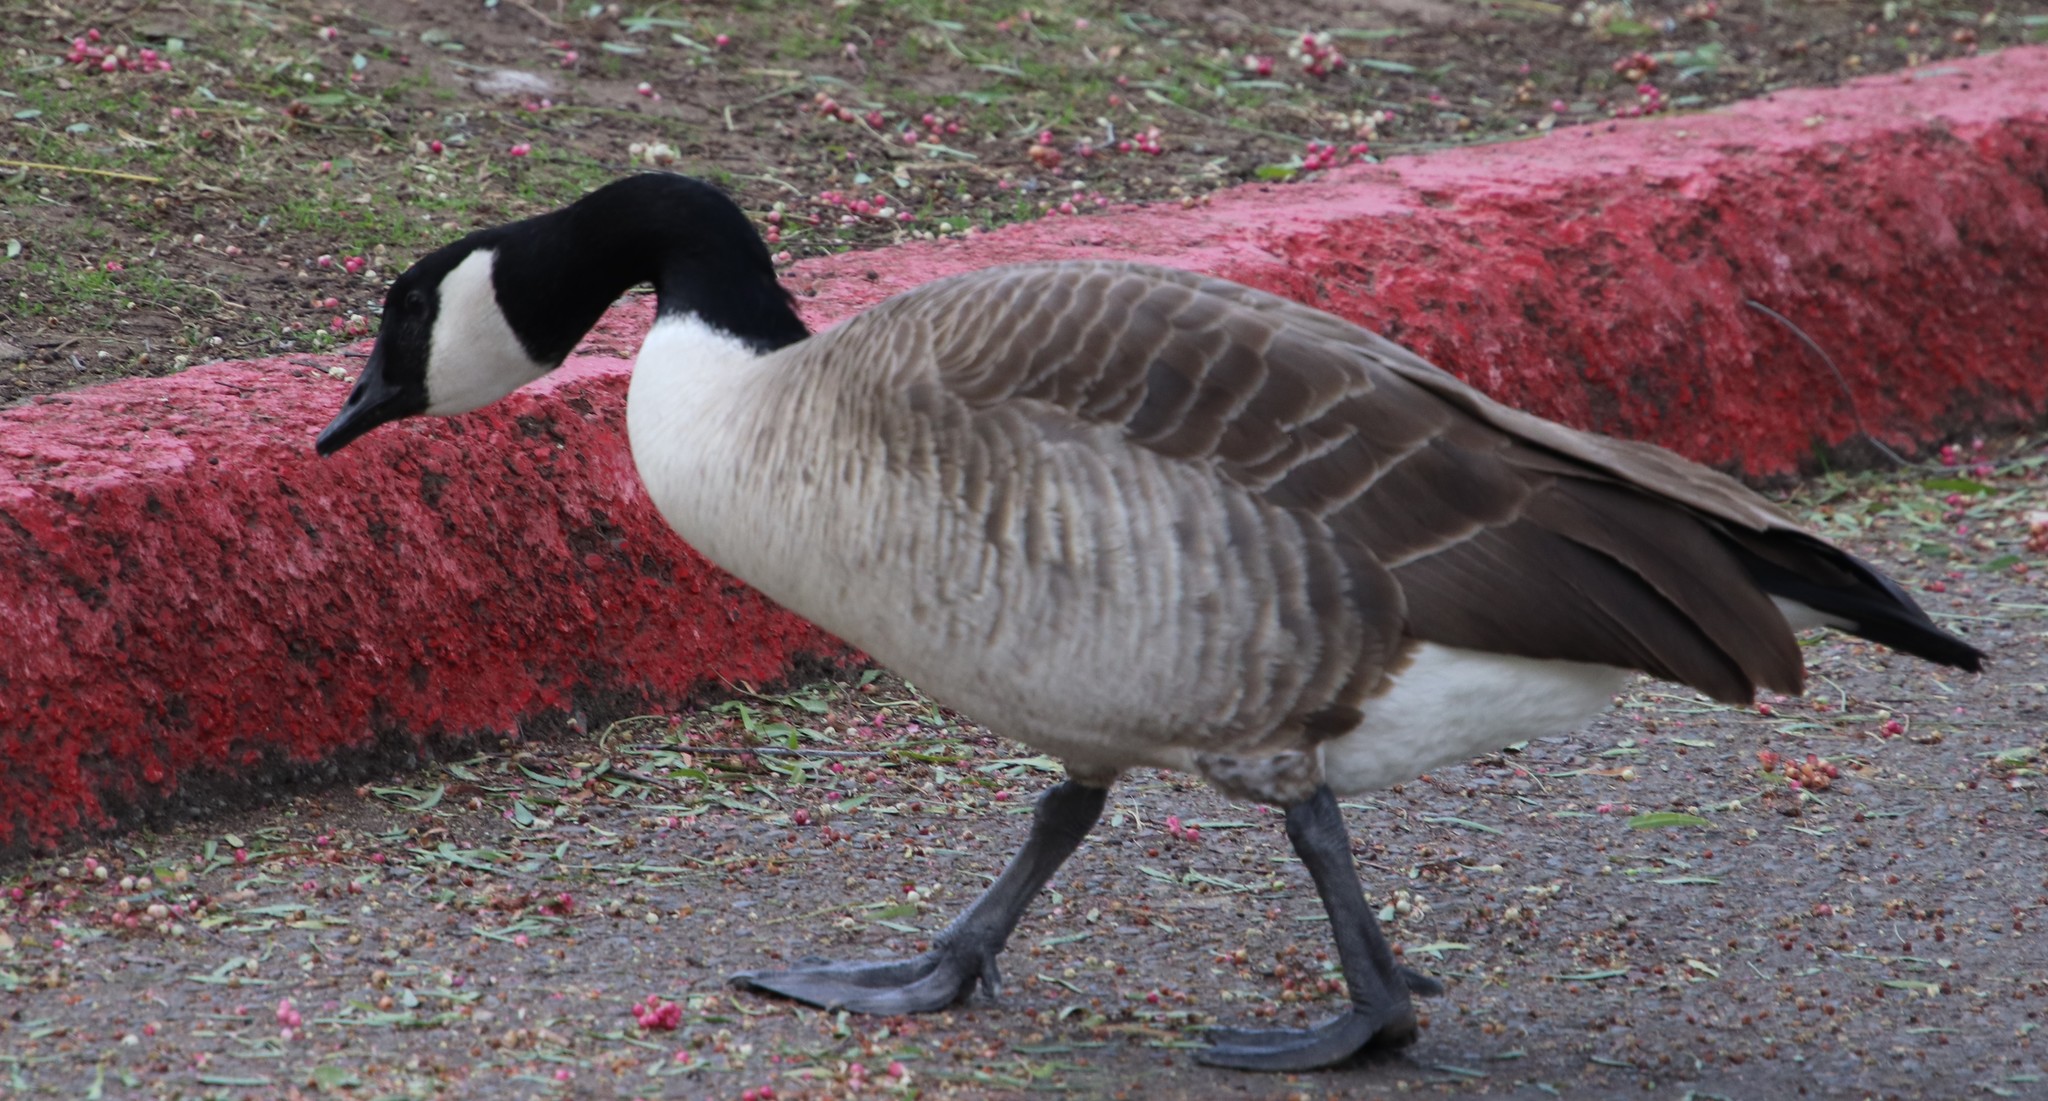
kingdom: Animalia
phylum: Chordata
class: Aves
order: Anseriformes
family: Anatidae
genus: Branta
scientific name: Branta canadensis
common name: Canada goose
